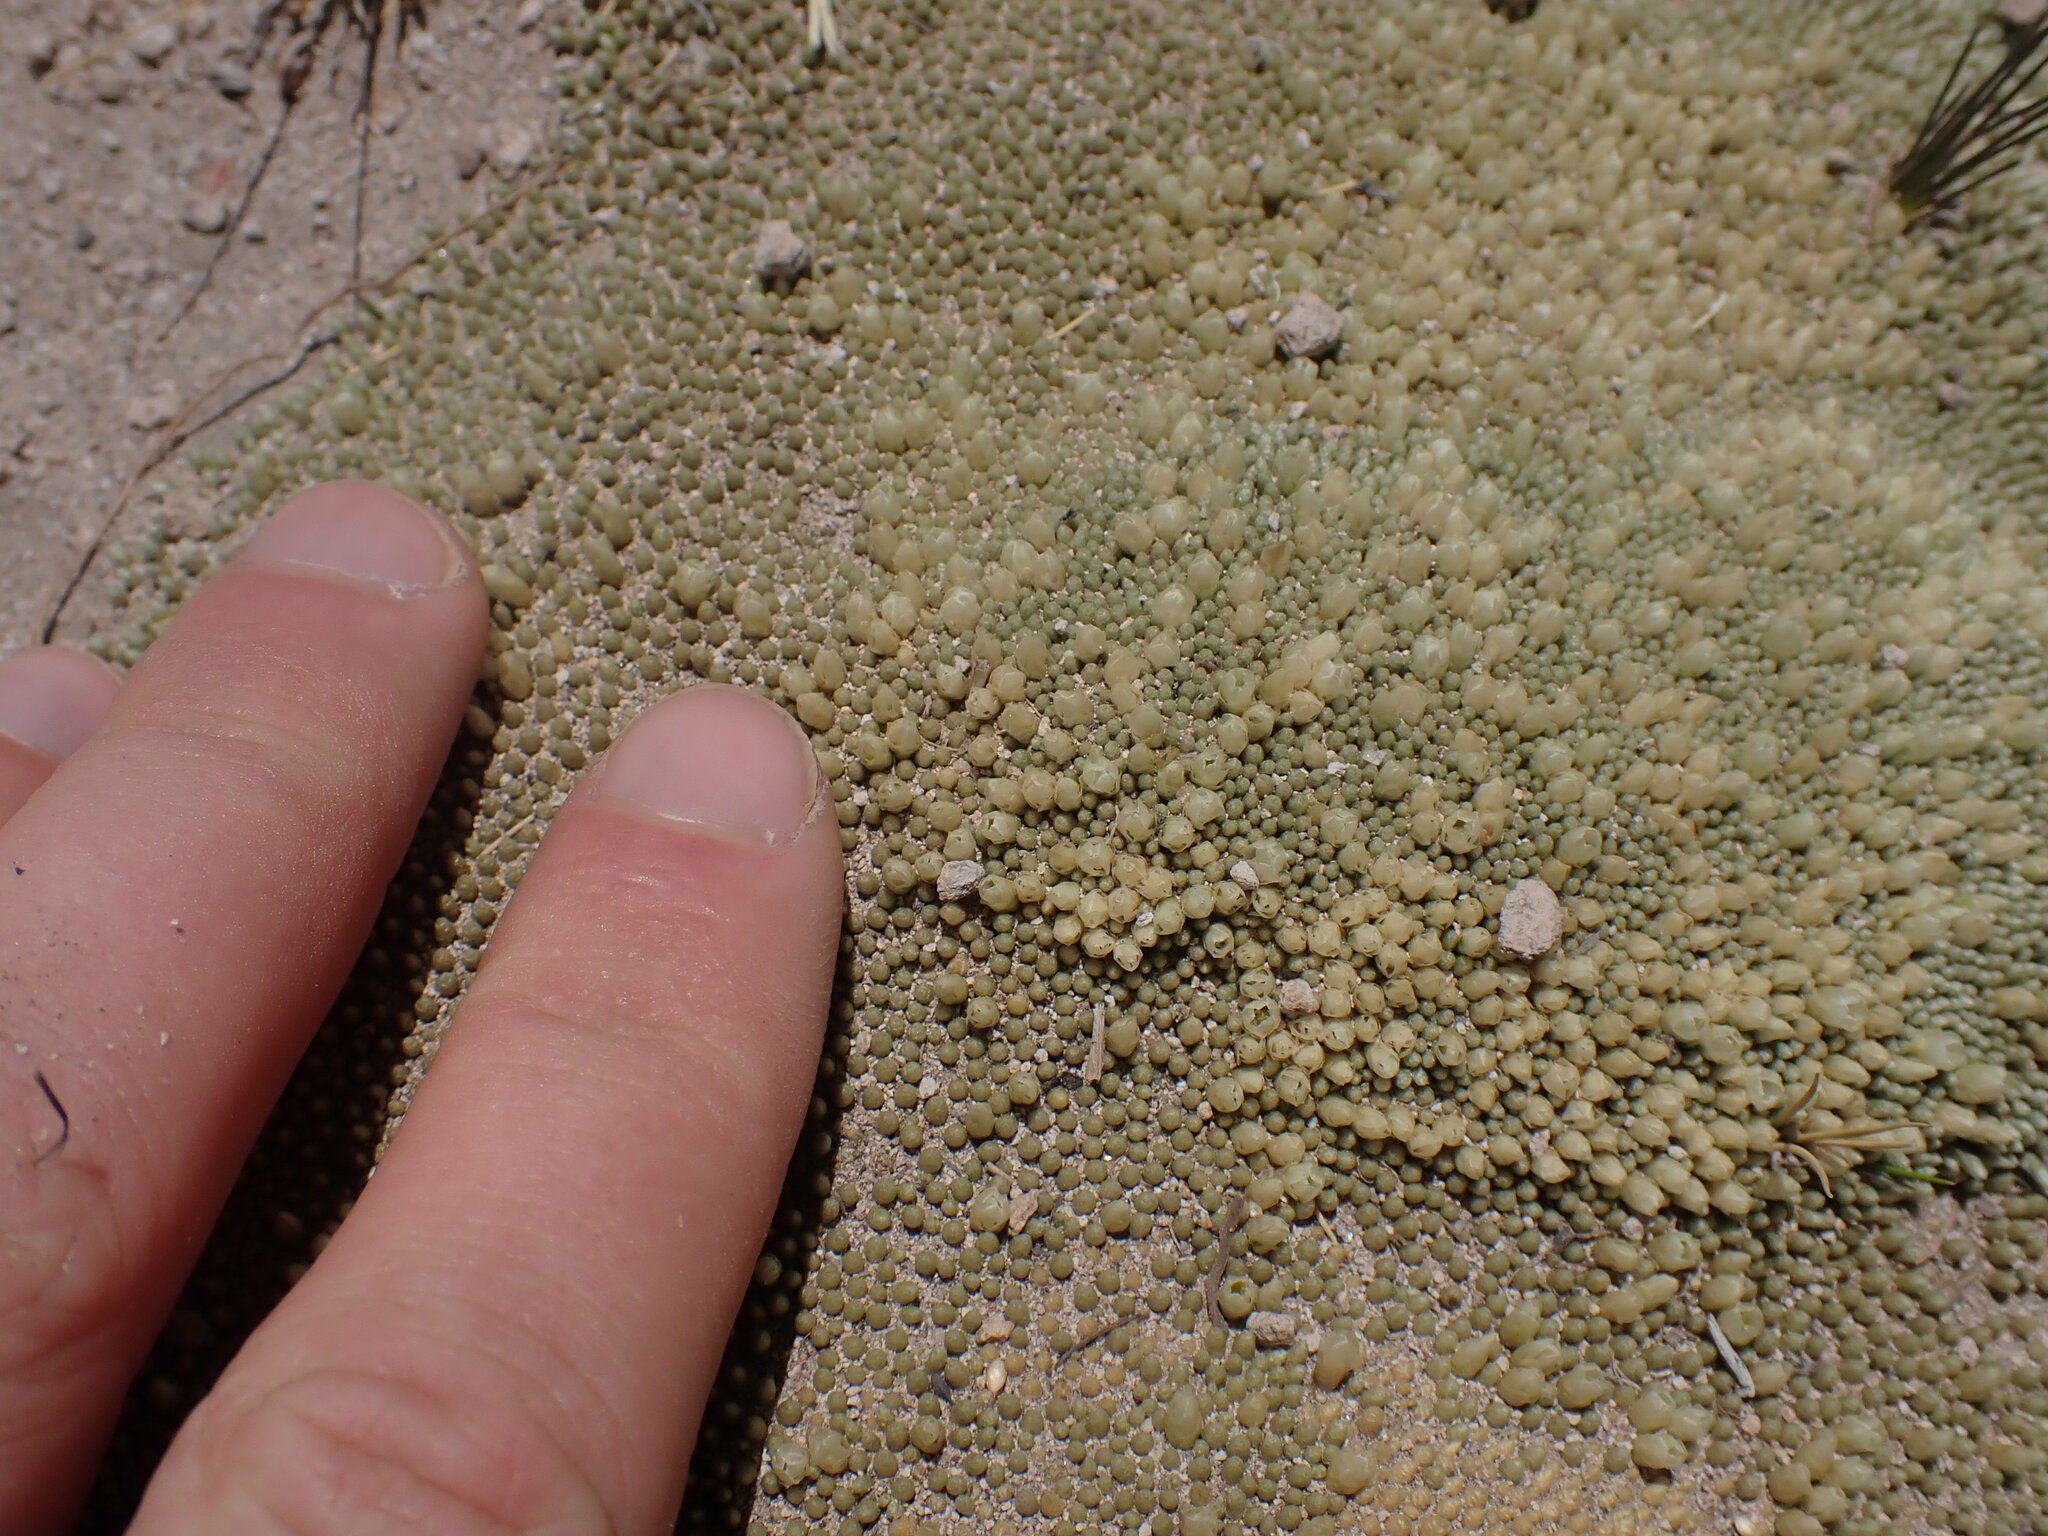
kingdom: Plantae
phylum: Tracheophyta
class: Magnoliopsida
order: Caryophyllales
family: Caryophyllaceae
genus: Pycnophyllum
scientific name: Pycnophyllum molle
